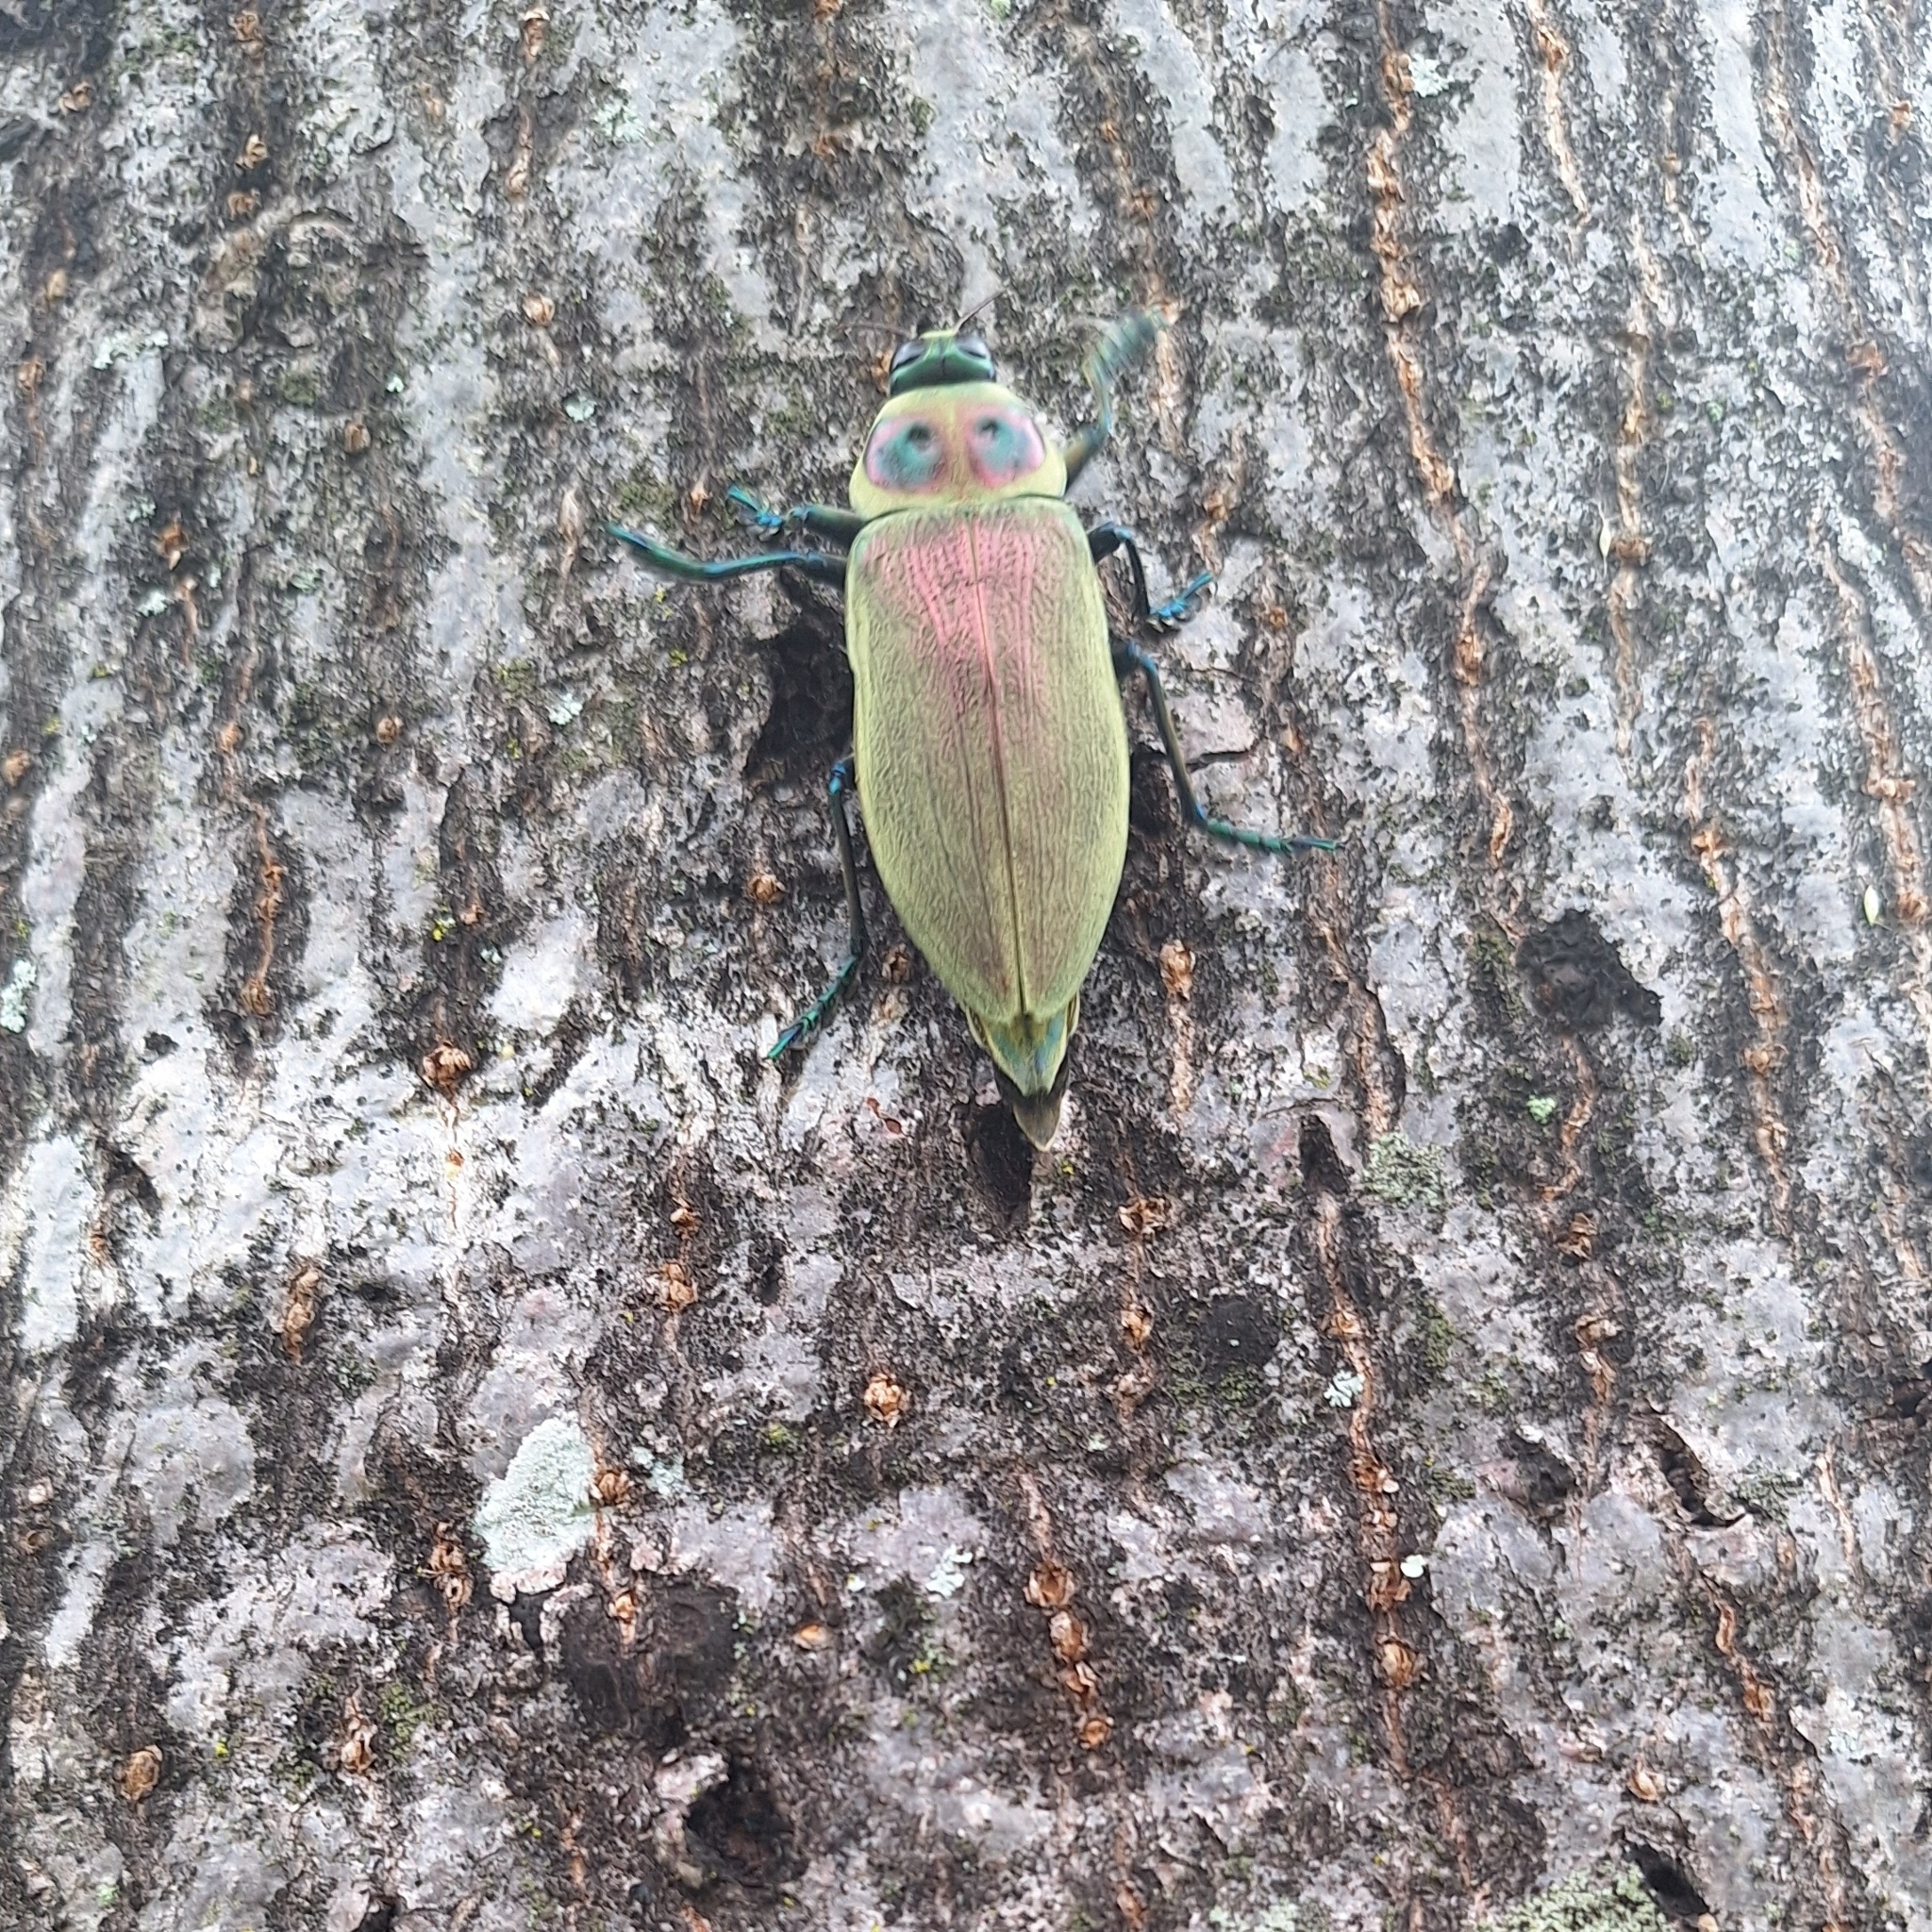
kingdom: Animalia
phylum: Arthropoda
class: Insecta
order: Coleoptera
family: Buprestidae
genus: Euchroma
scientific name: Euchroma giganteum
